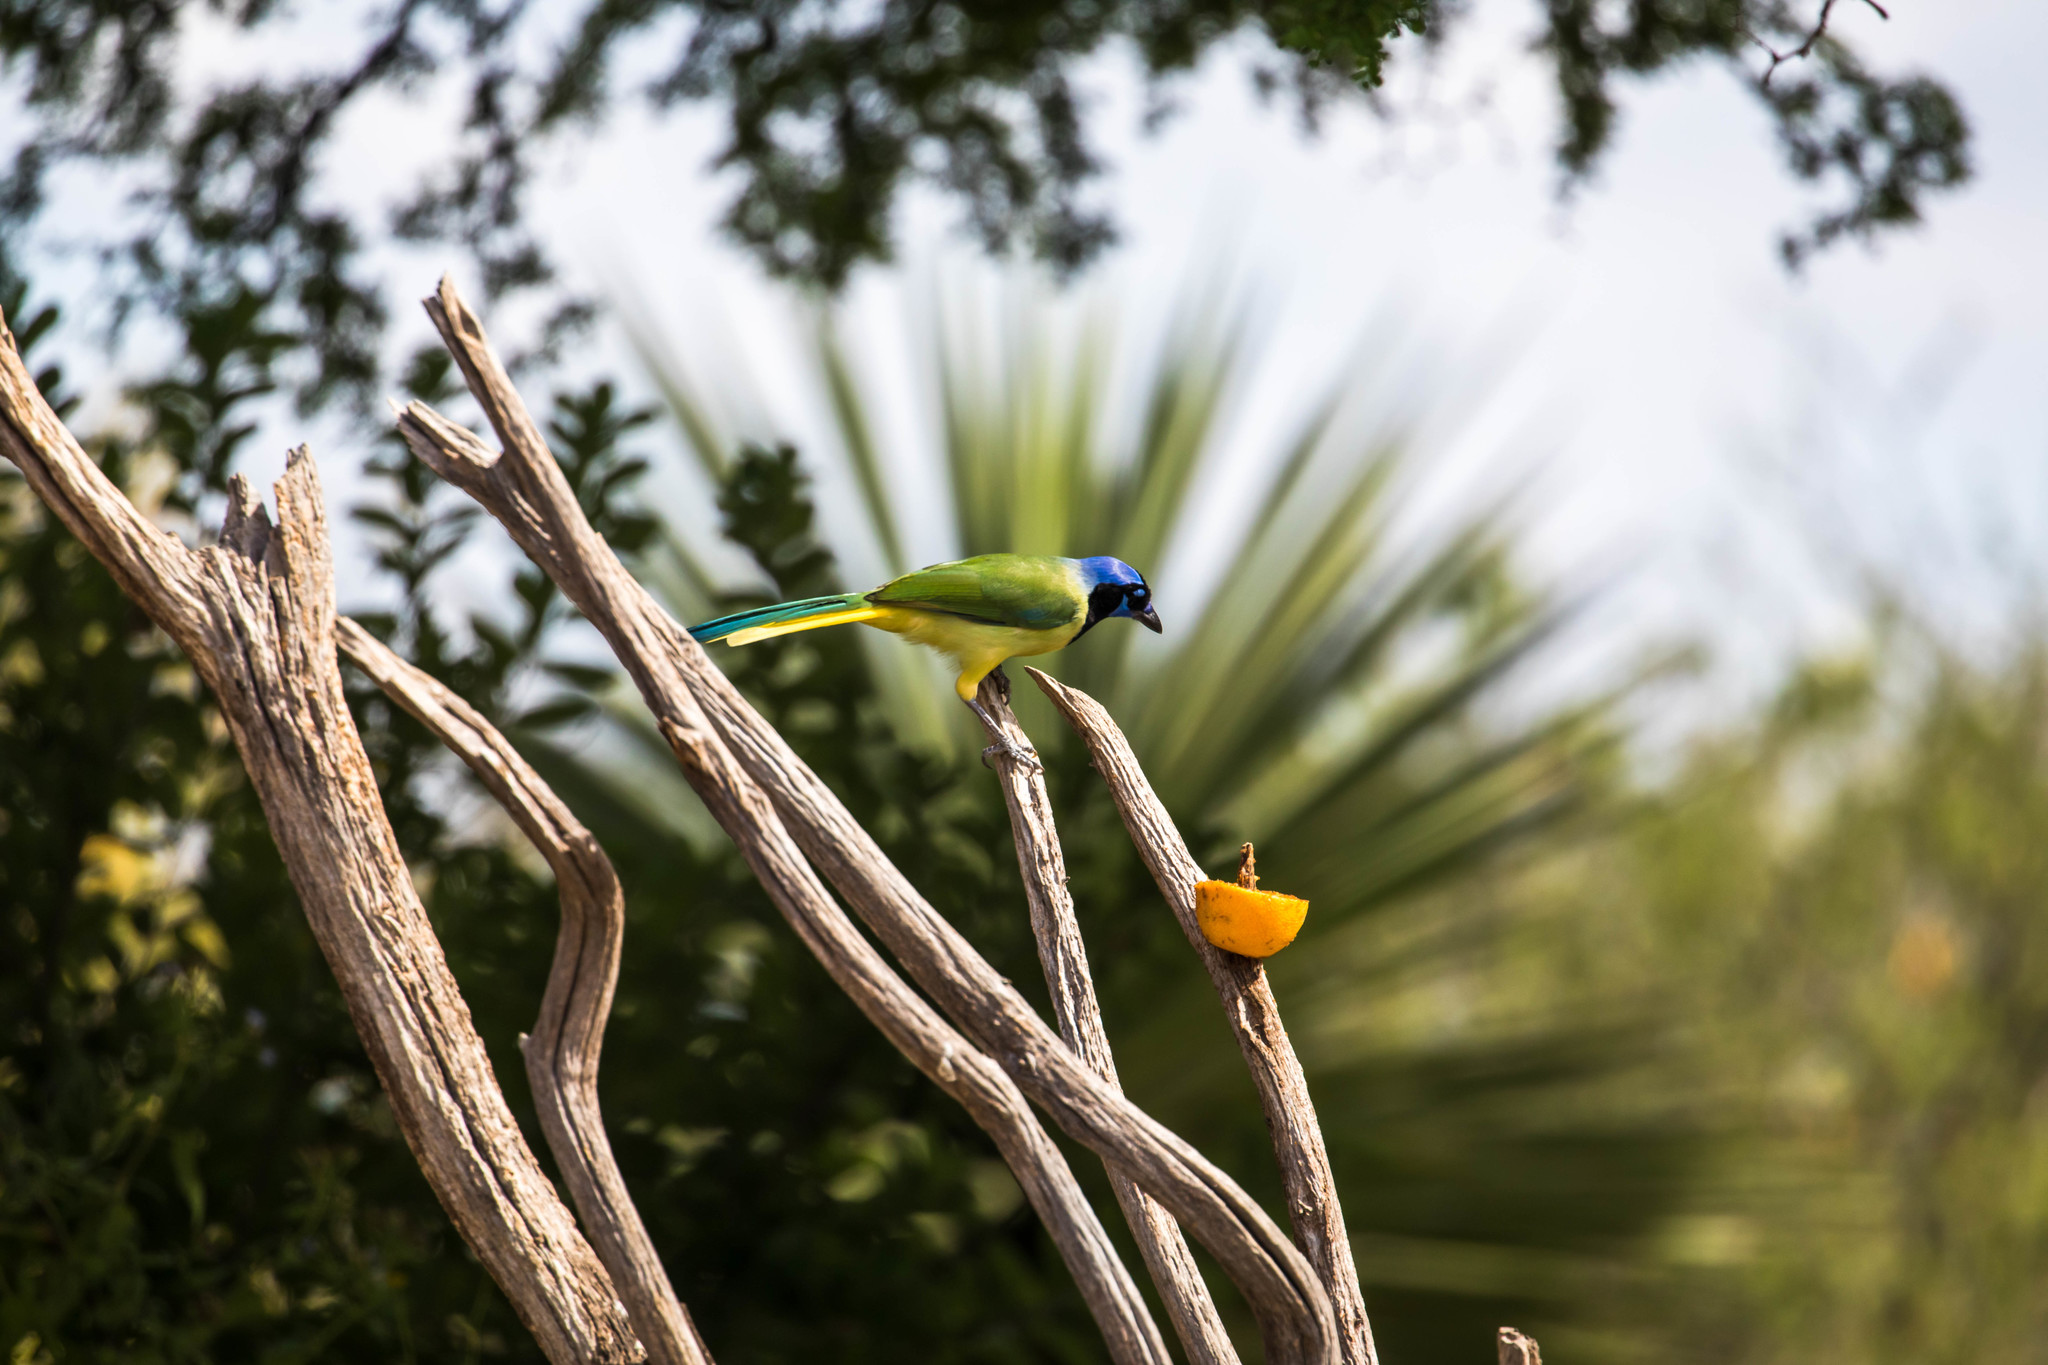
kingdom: Animalia
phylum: Chordata
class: Aves
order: Passeriformes
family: Corvidae
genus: Cyanocorax
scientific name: Cyanocorax yncas
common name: Green jay
